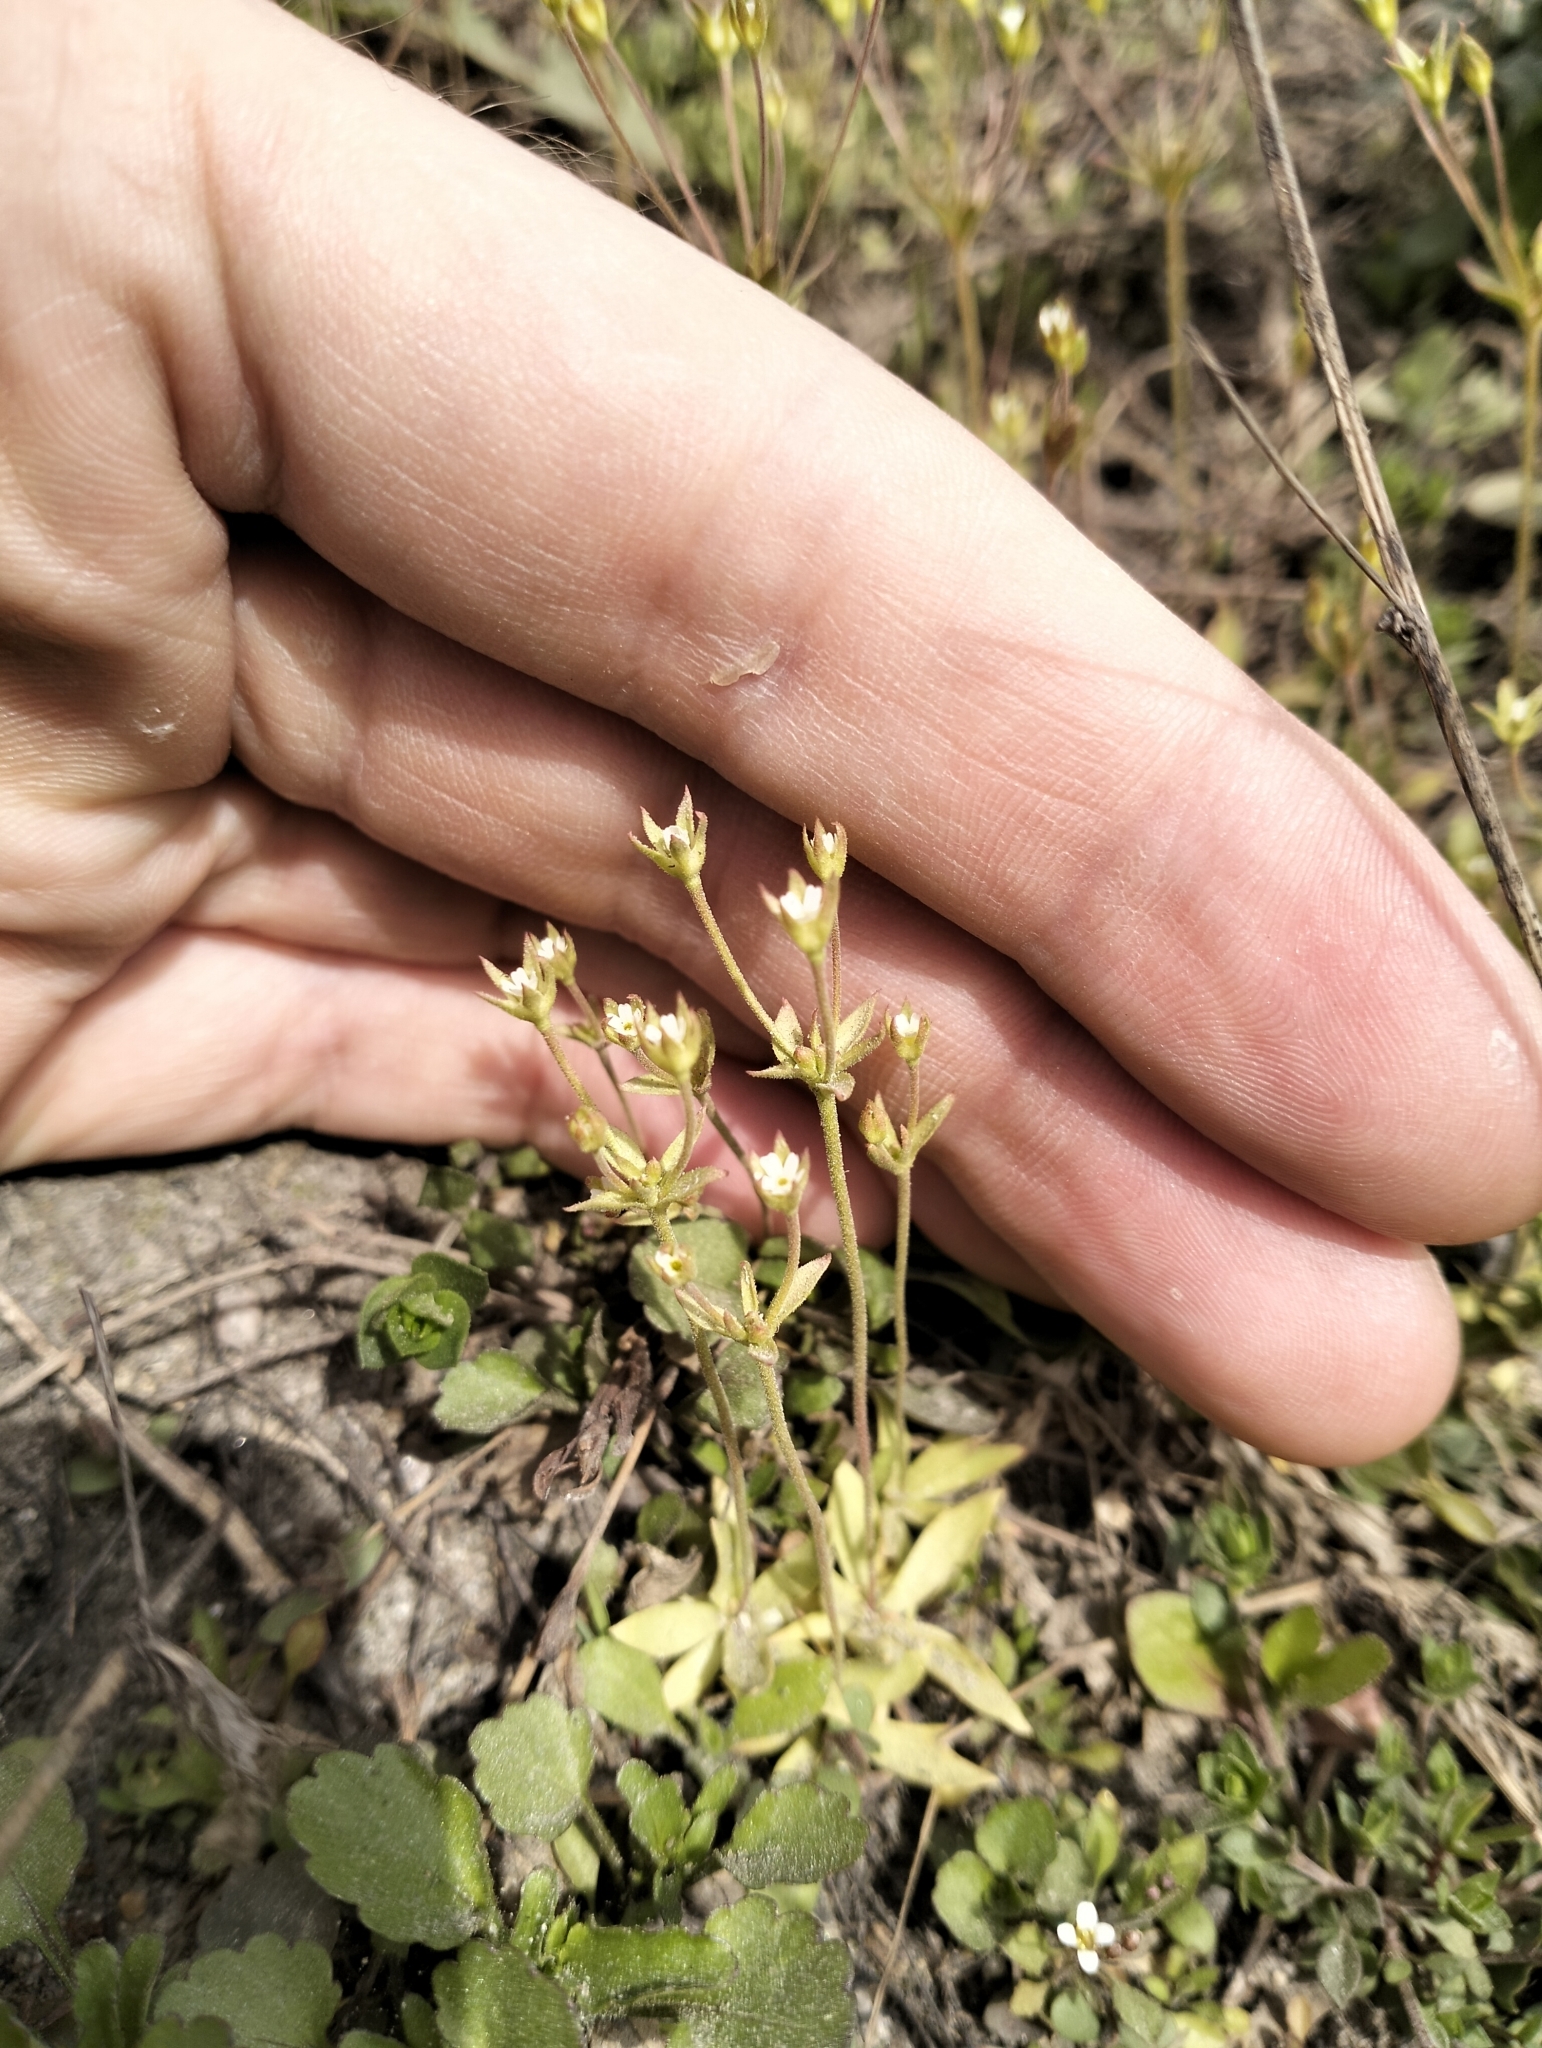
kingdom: Plantae
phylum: Tracheophyta
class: Magnoliopsida
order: Ericales
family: Primulaceae
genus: Androsace
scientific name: Androsace elongata
